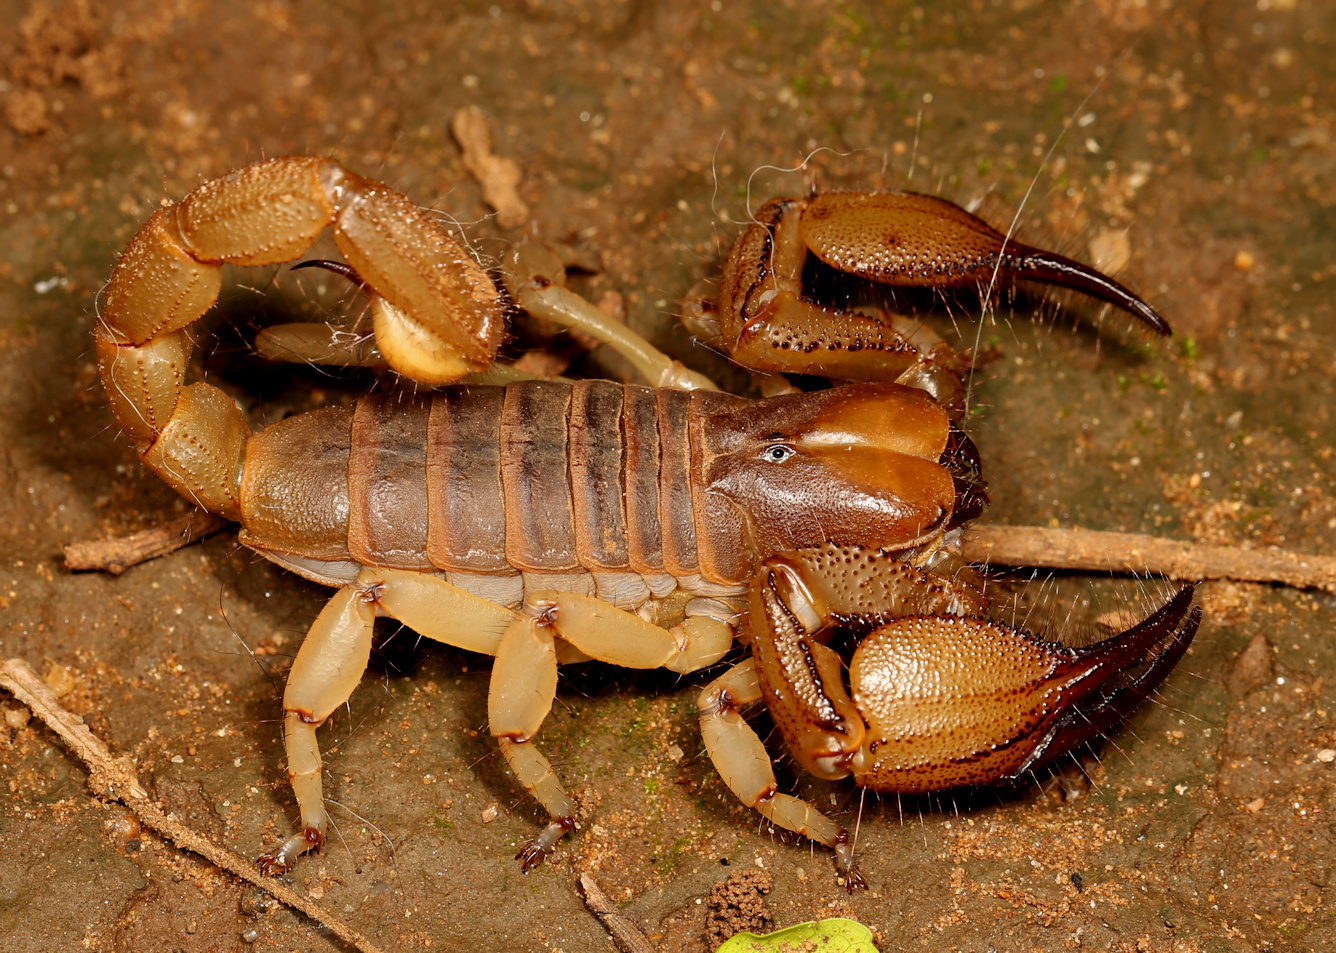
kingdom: Animalia
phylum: Arthropoda
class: Arachnida
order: Scorpiones
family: Scorpionidae
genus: Opistophthalmus
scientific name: Opistophthalmus glabrifrons
